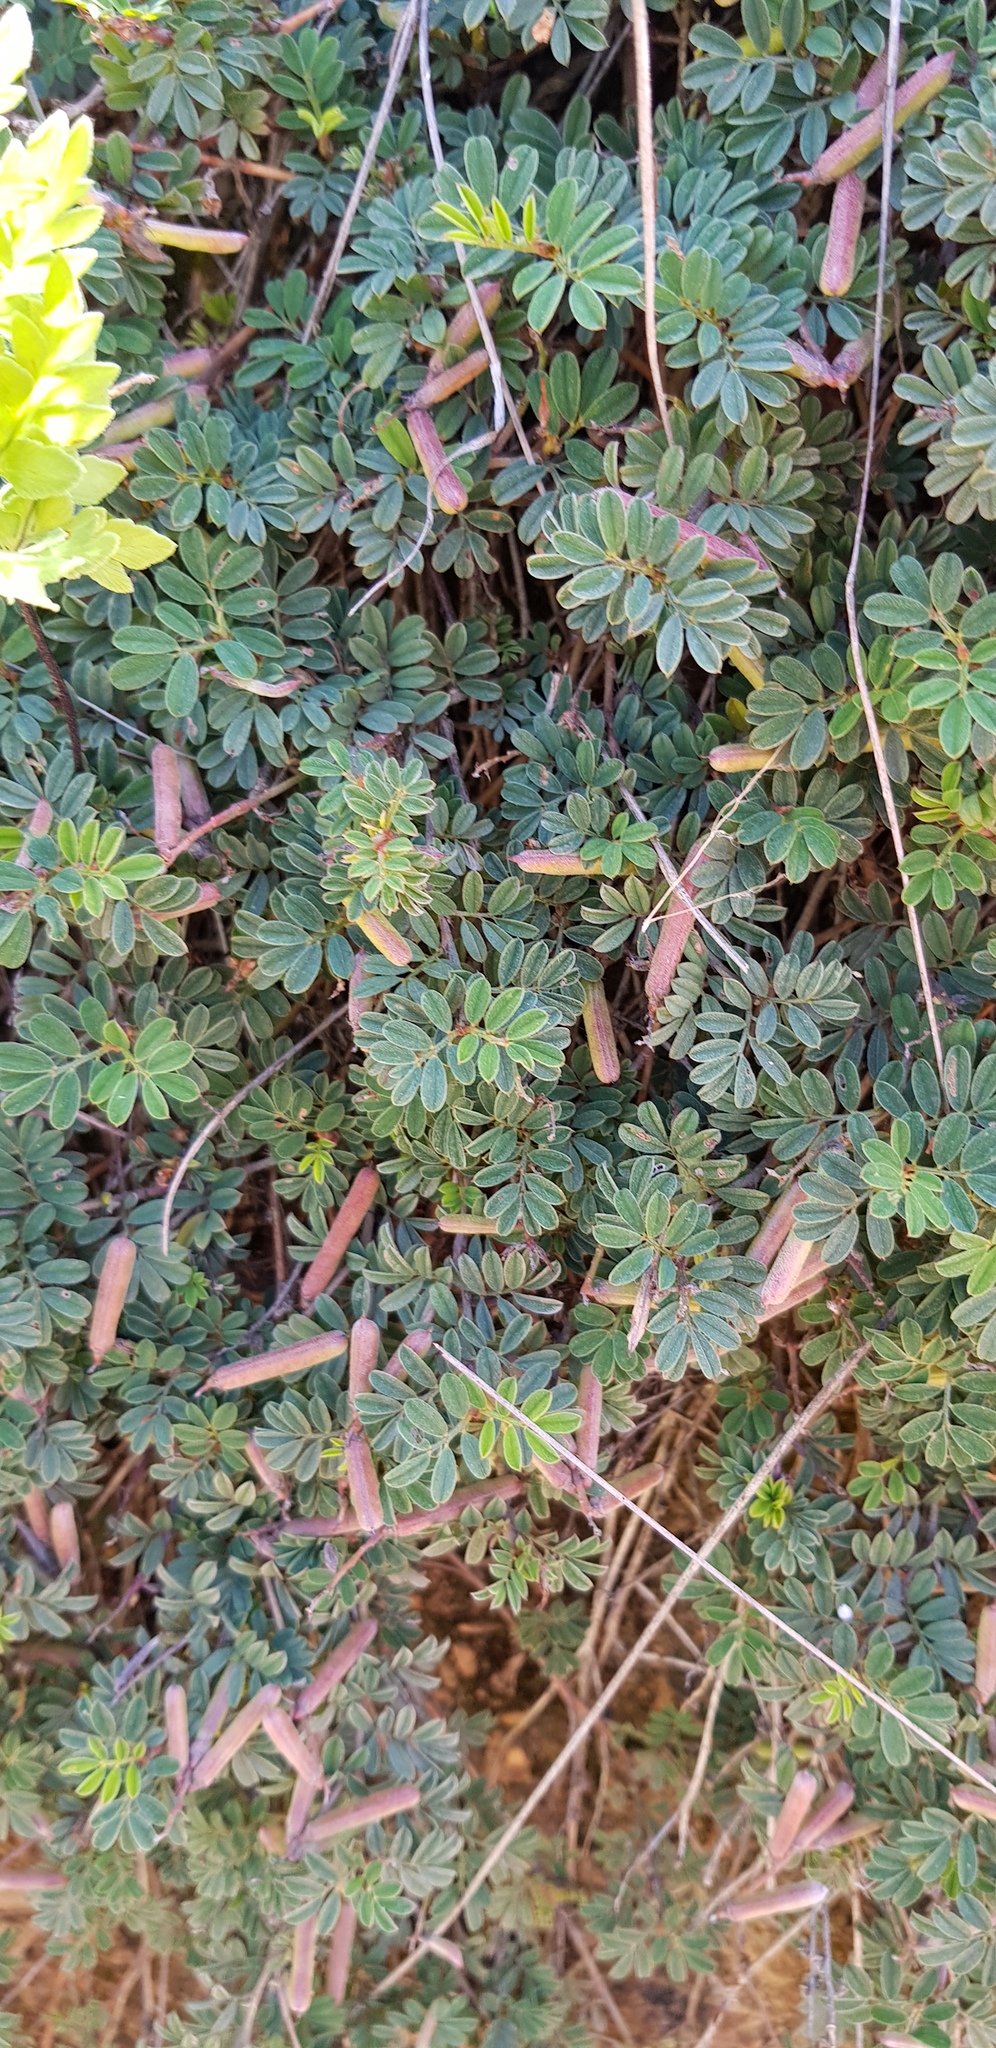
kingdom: Plantae
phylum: Tracheophyta
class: Magnoliopsida
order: Fabales
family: Fabaceae
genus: Indigofera
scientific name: Indigofera miniata
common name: Coast indigo
